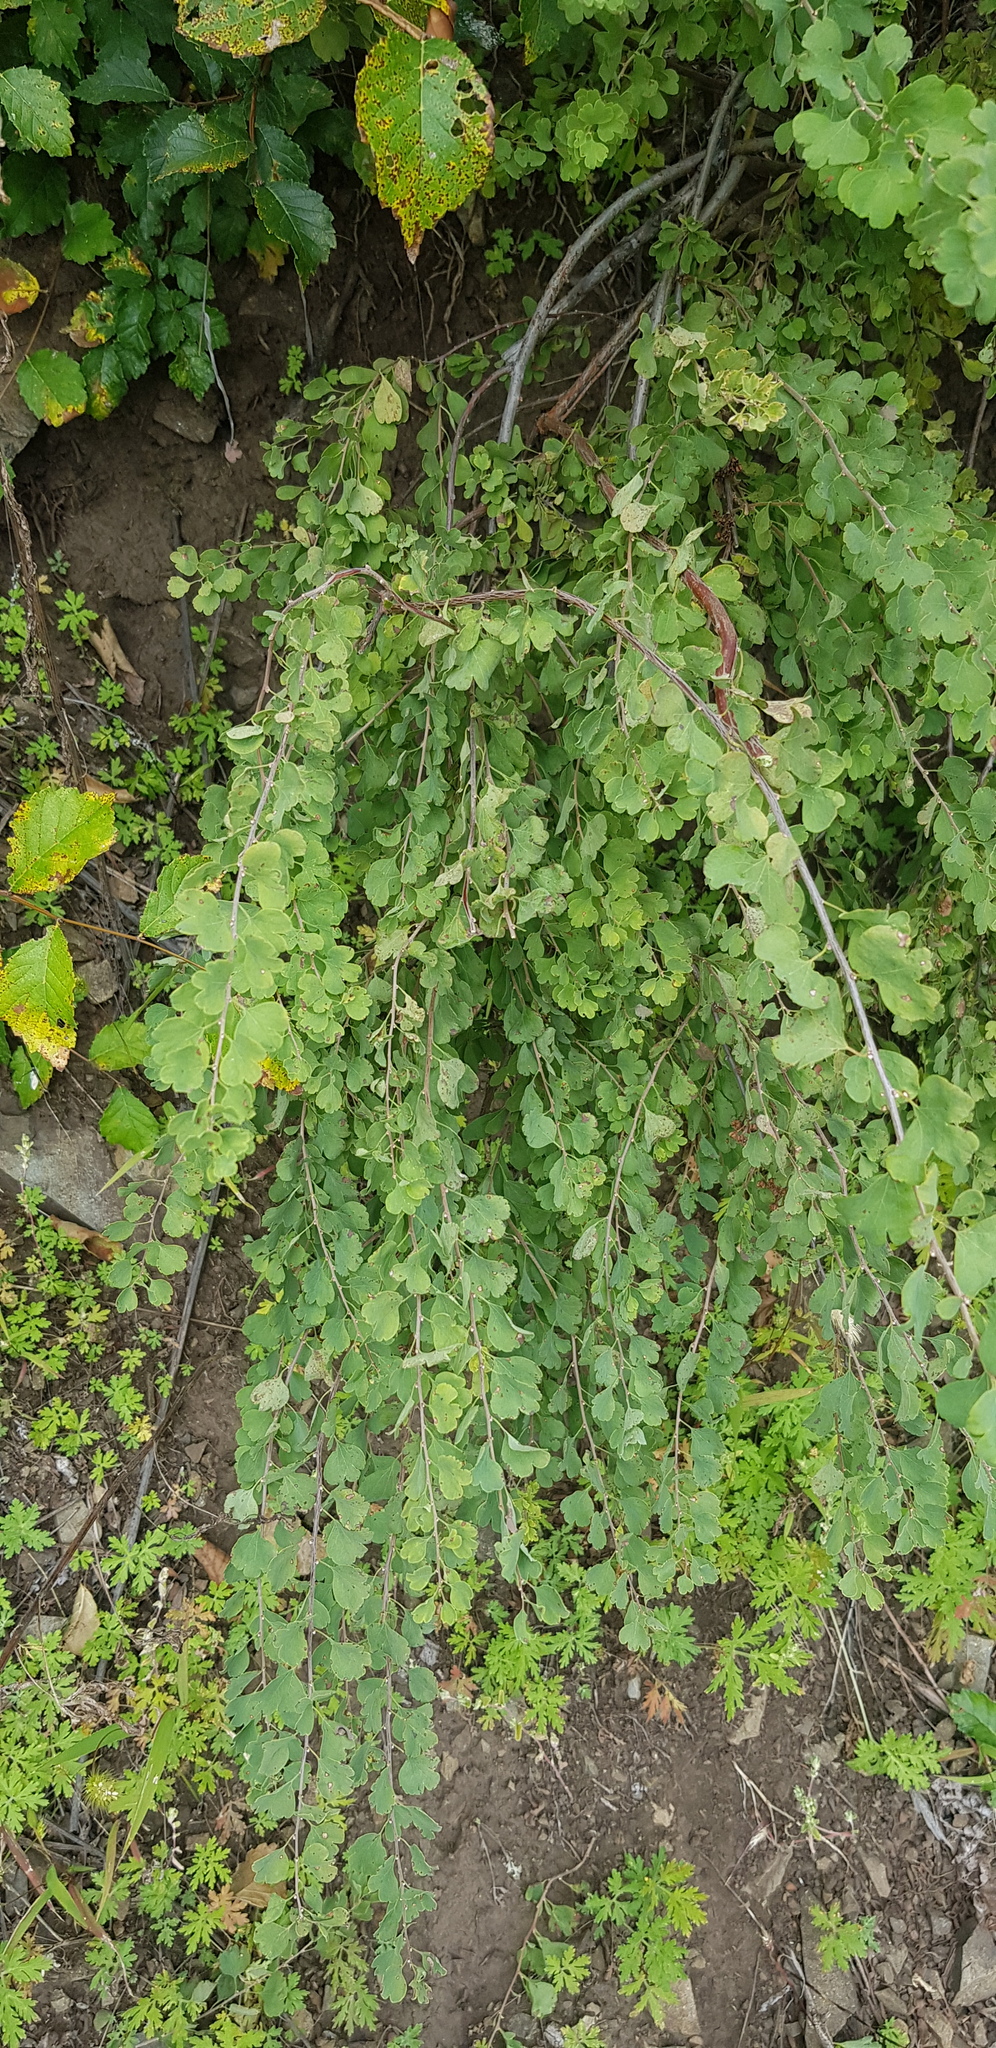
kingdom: Plantae
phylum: Tracheophyta
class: Magnoliopsida
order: Rosales
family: Rosaceae
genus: Spiraea
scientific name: Spiraea aquilegifolia
